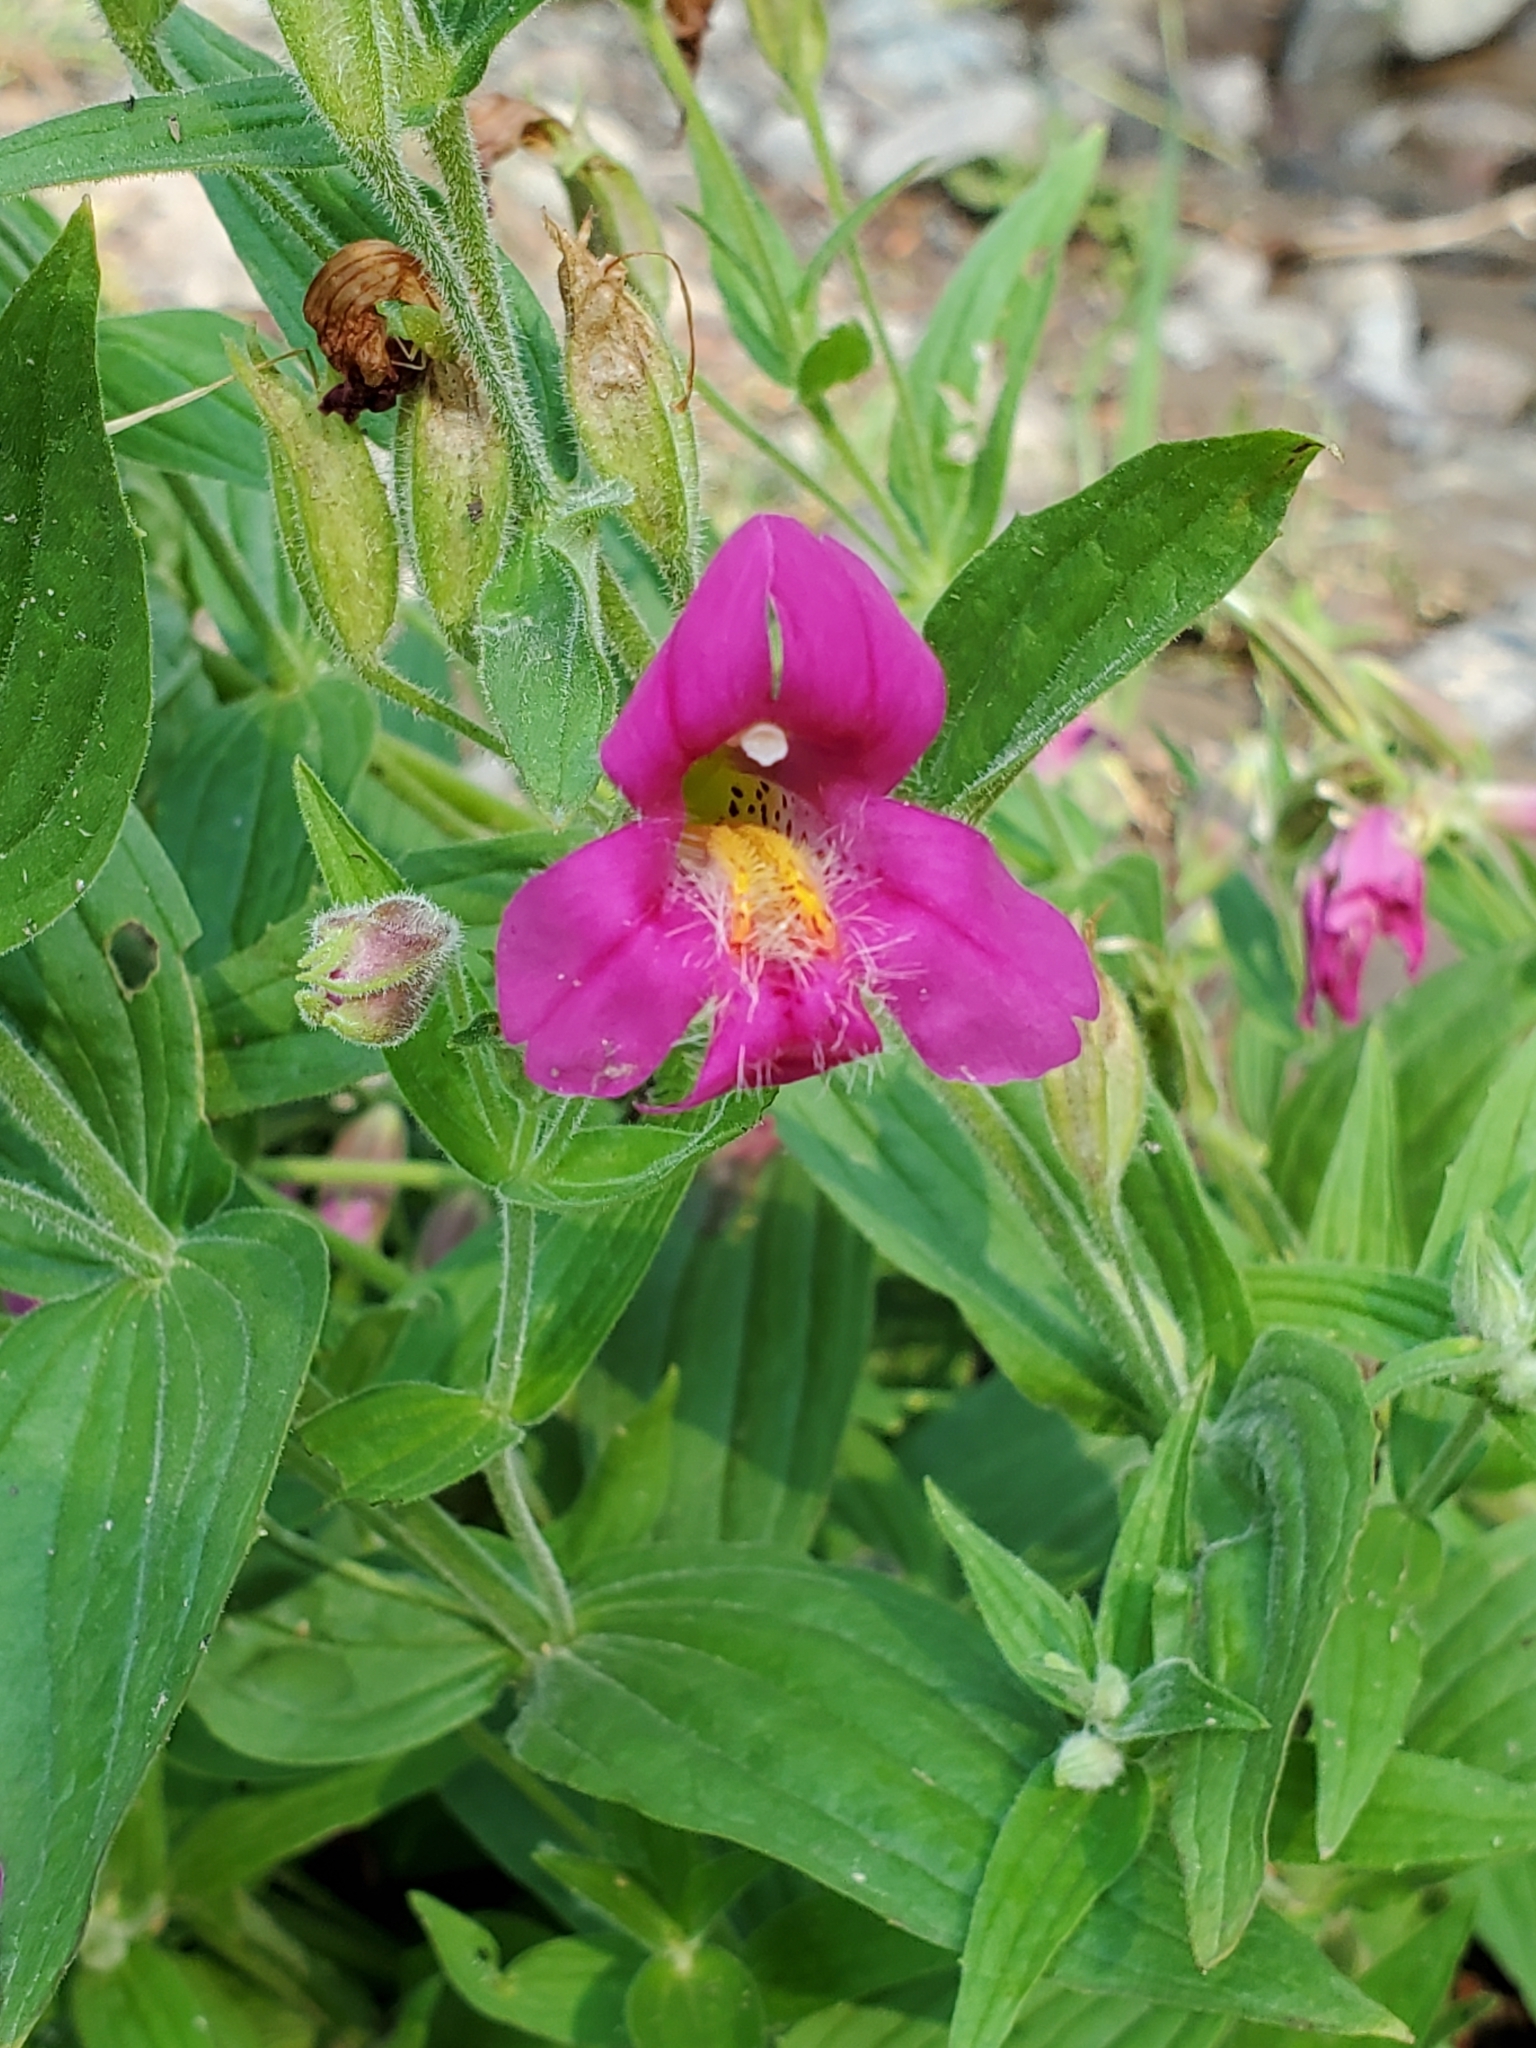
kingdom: Plantae
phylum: Tracheophyta
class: Magnoliopsida
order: Lamiales
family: Phrymaceae
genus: Erythranthe
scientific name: Erythranthe lewisii
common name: Lewis's monkey-flower
